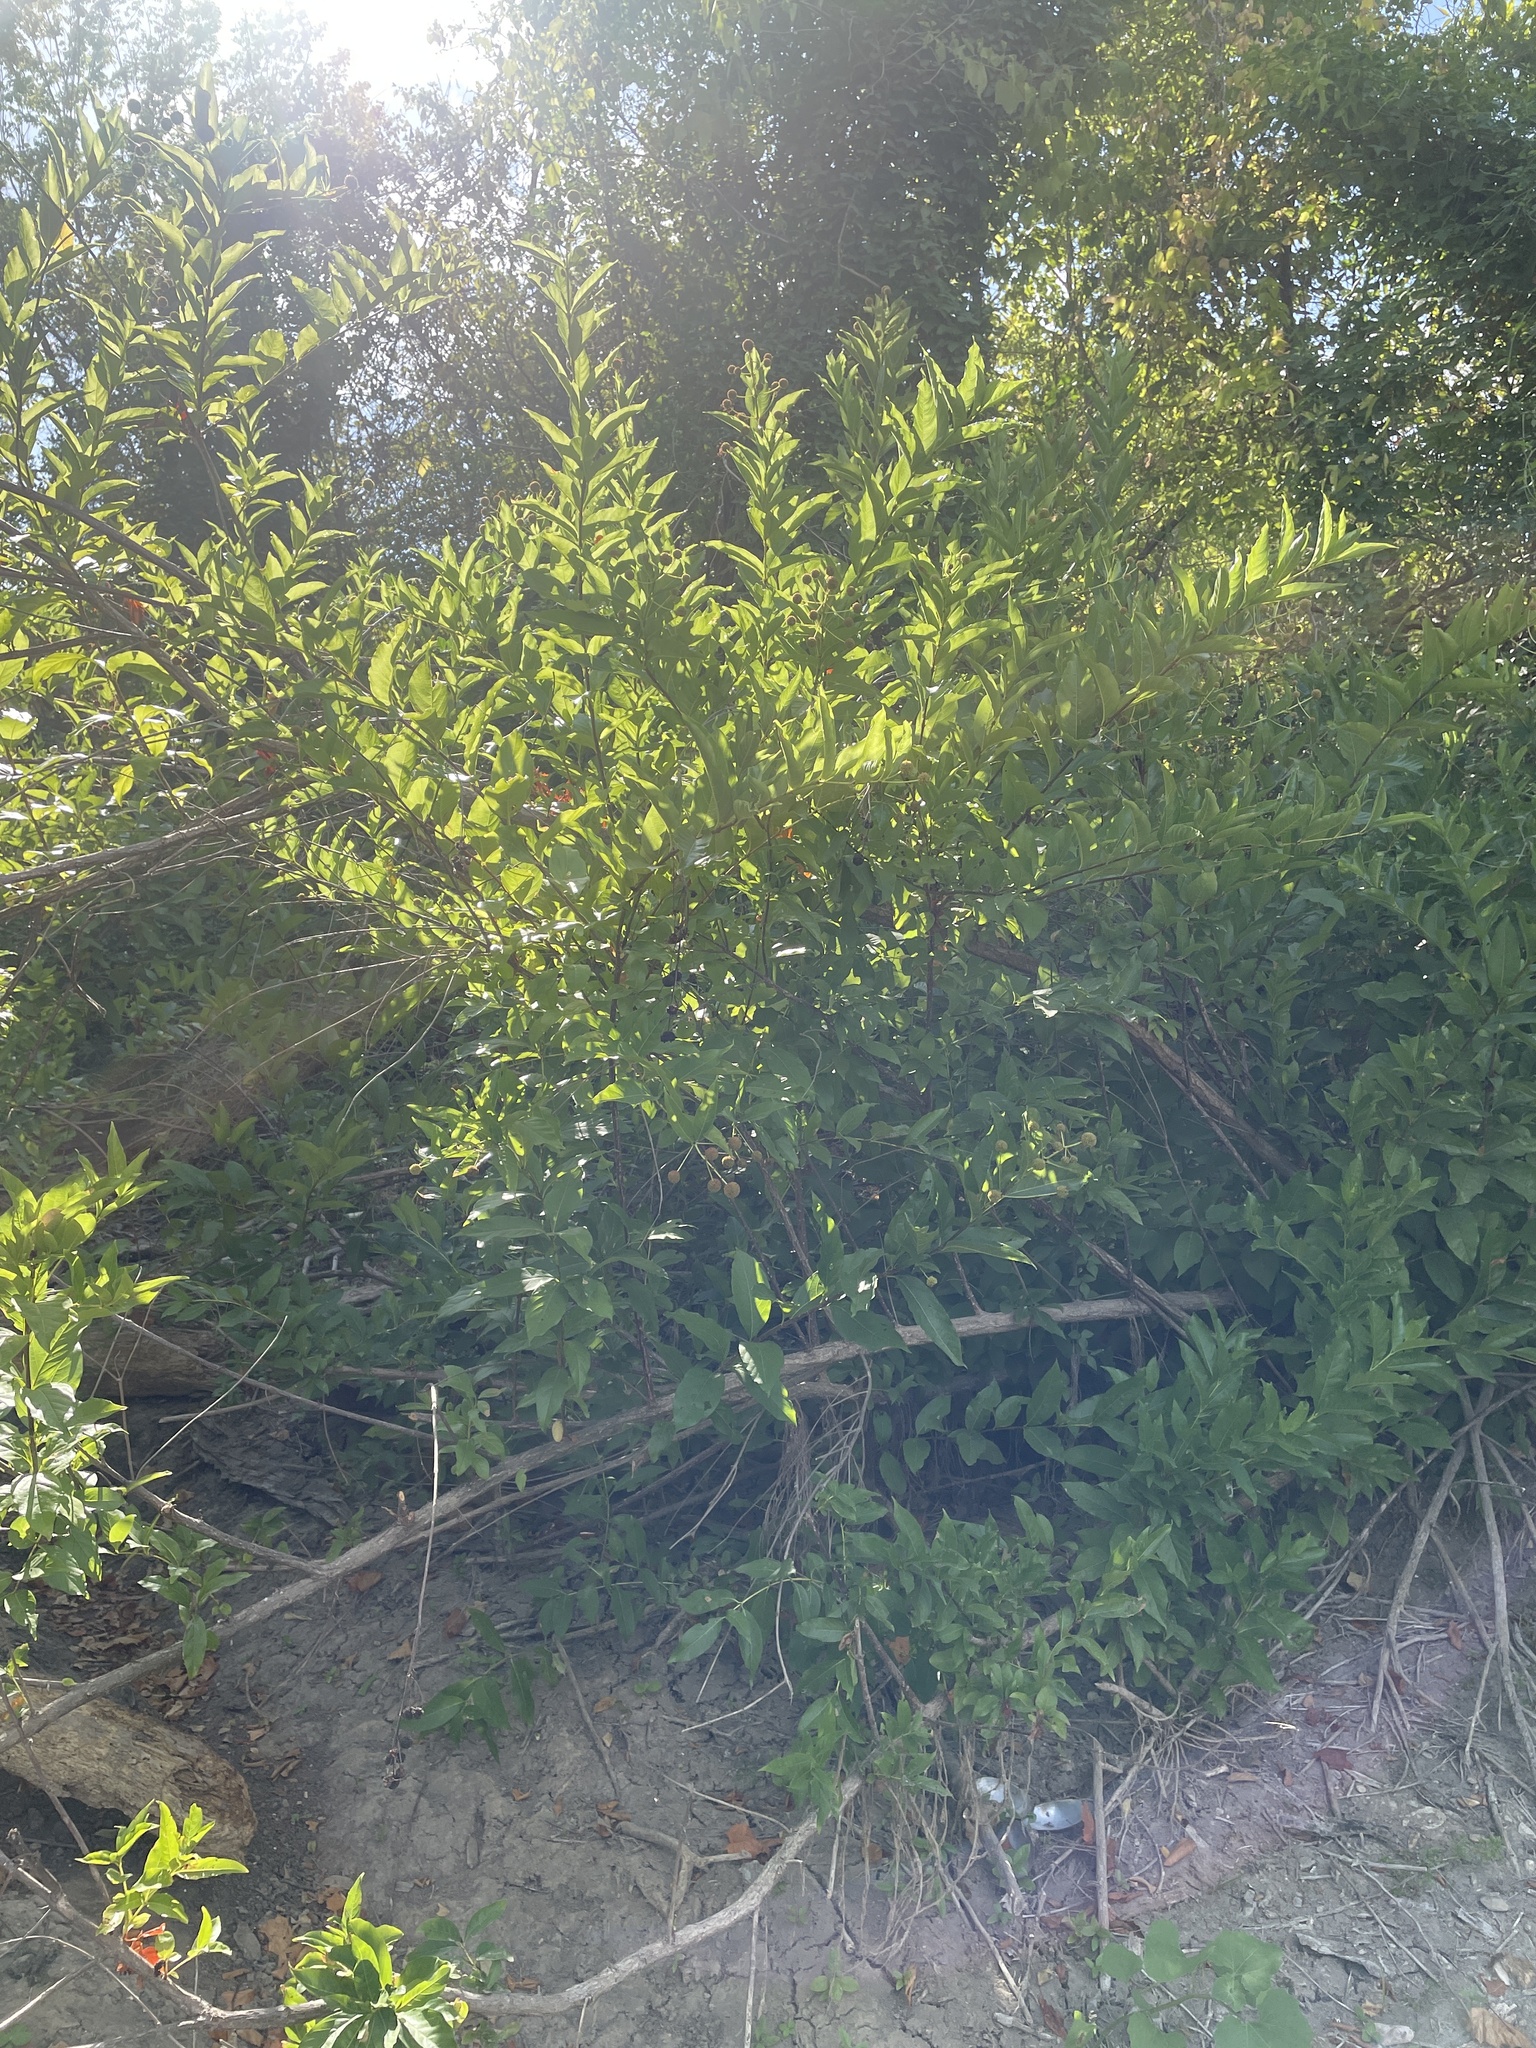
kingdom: Plantae
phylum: Tracheophyta
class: Magnoliopsida
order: Gentianales
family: Rubiaceae
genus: Cephalanthus
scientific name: Cephalanthus occidentalis
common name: Button-willow
